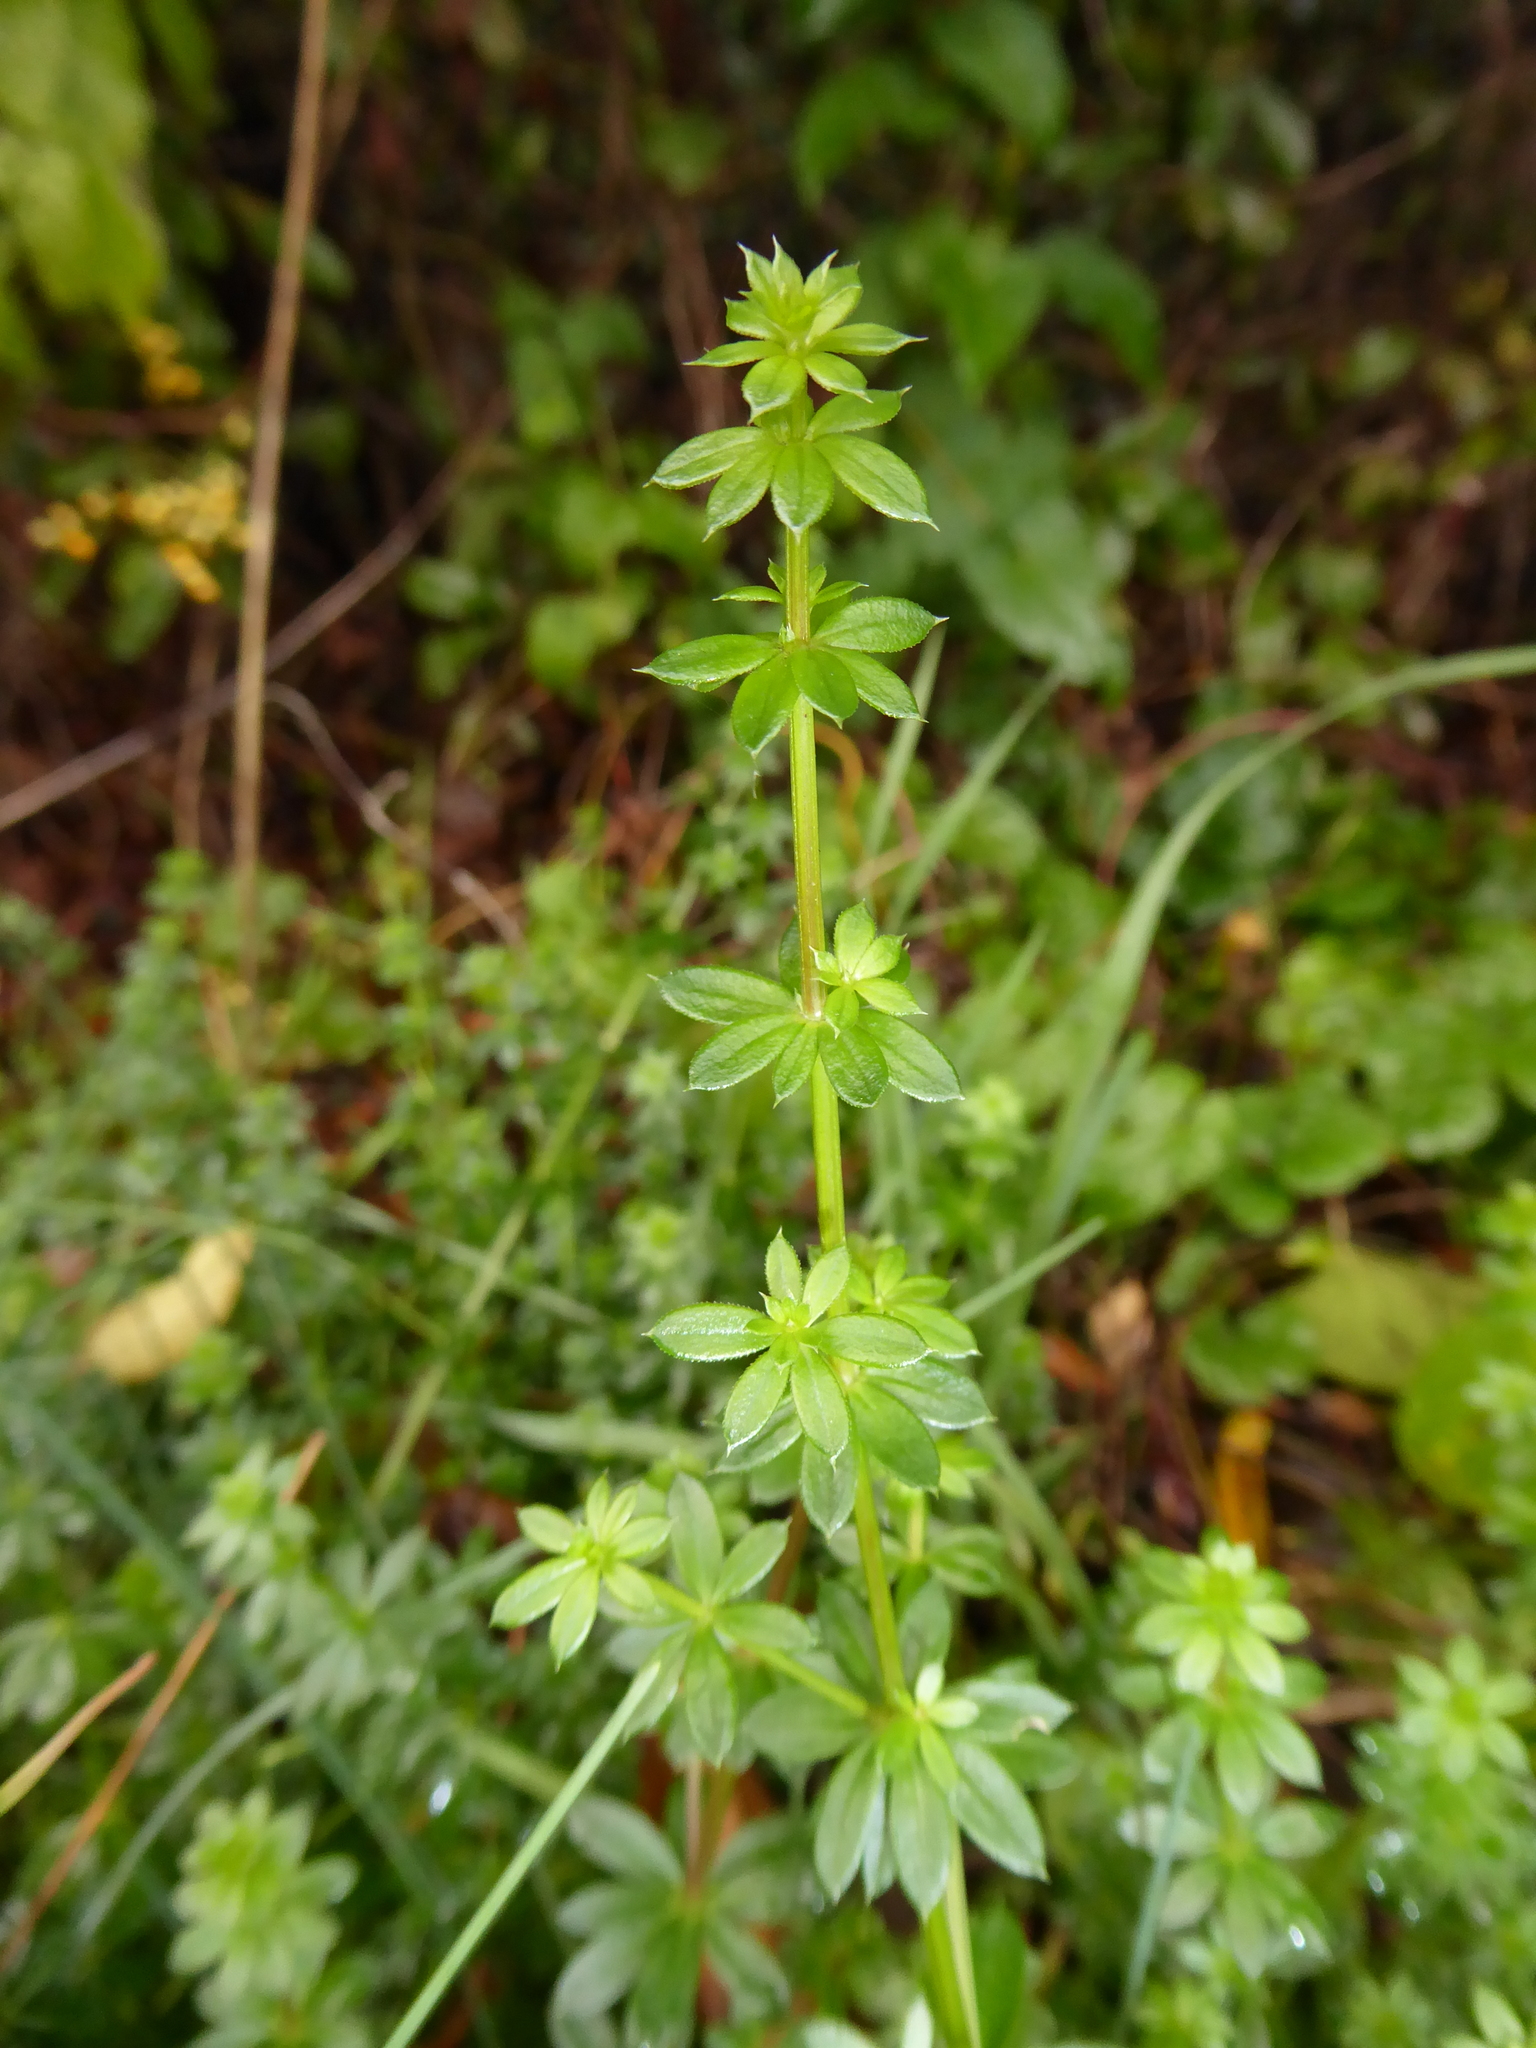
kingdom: Plantae
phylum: Tracheophyta
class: Magnoliopsida
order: Gentianales
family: Rubiaceae
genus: Galium
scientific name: Galium aparine
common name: Cleavers
